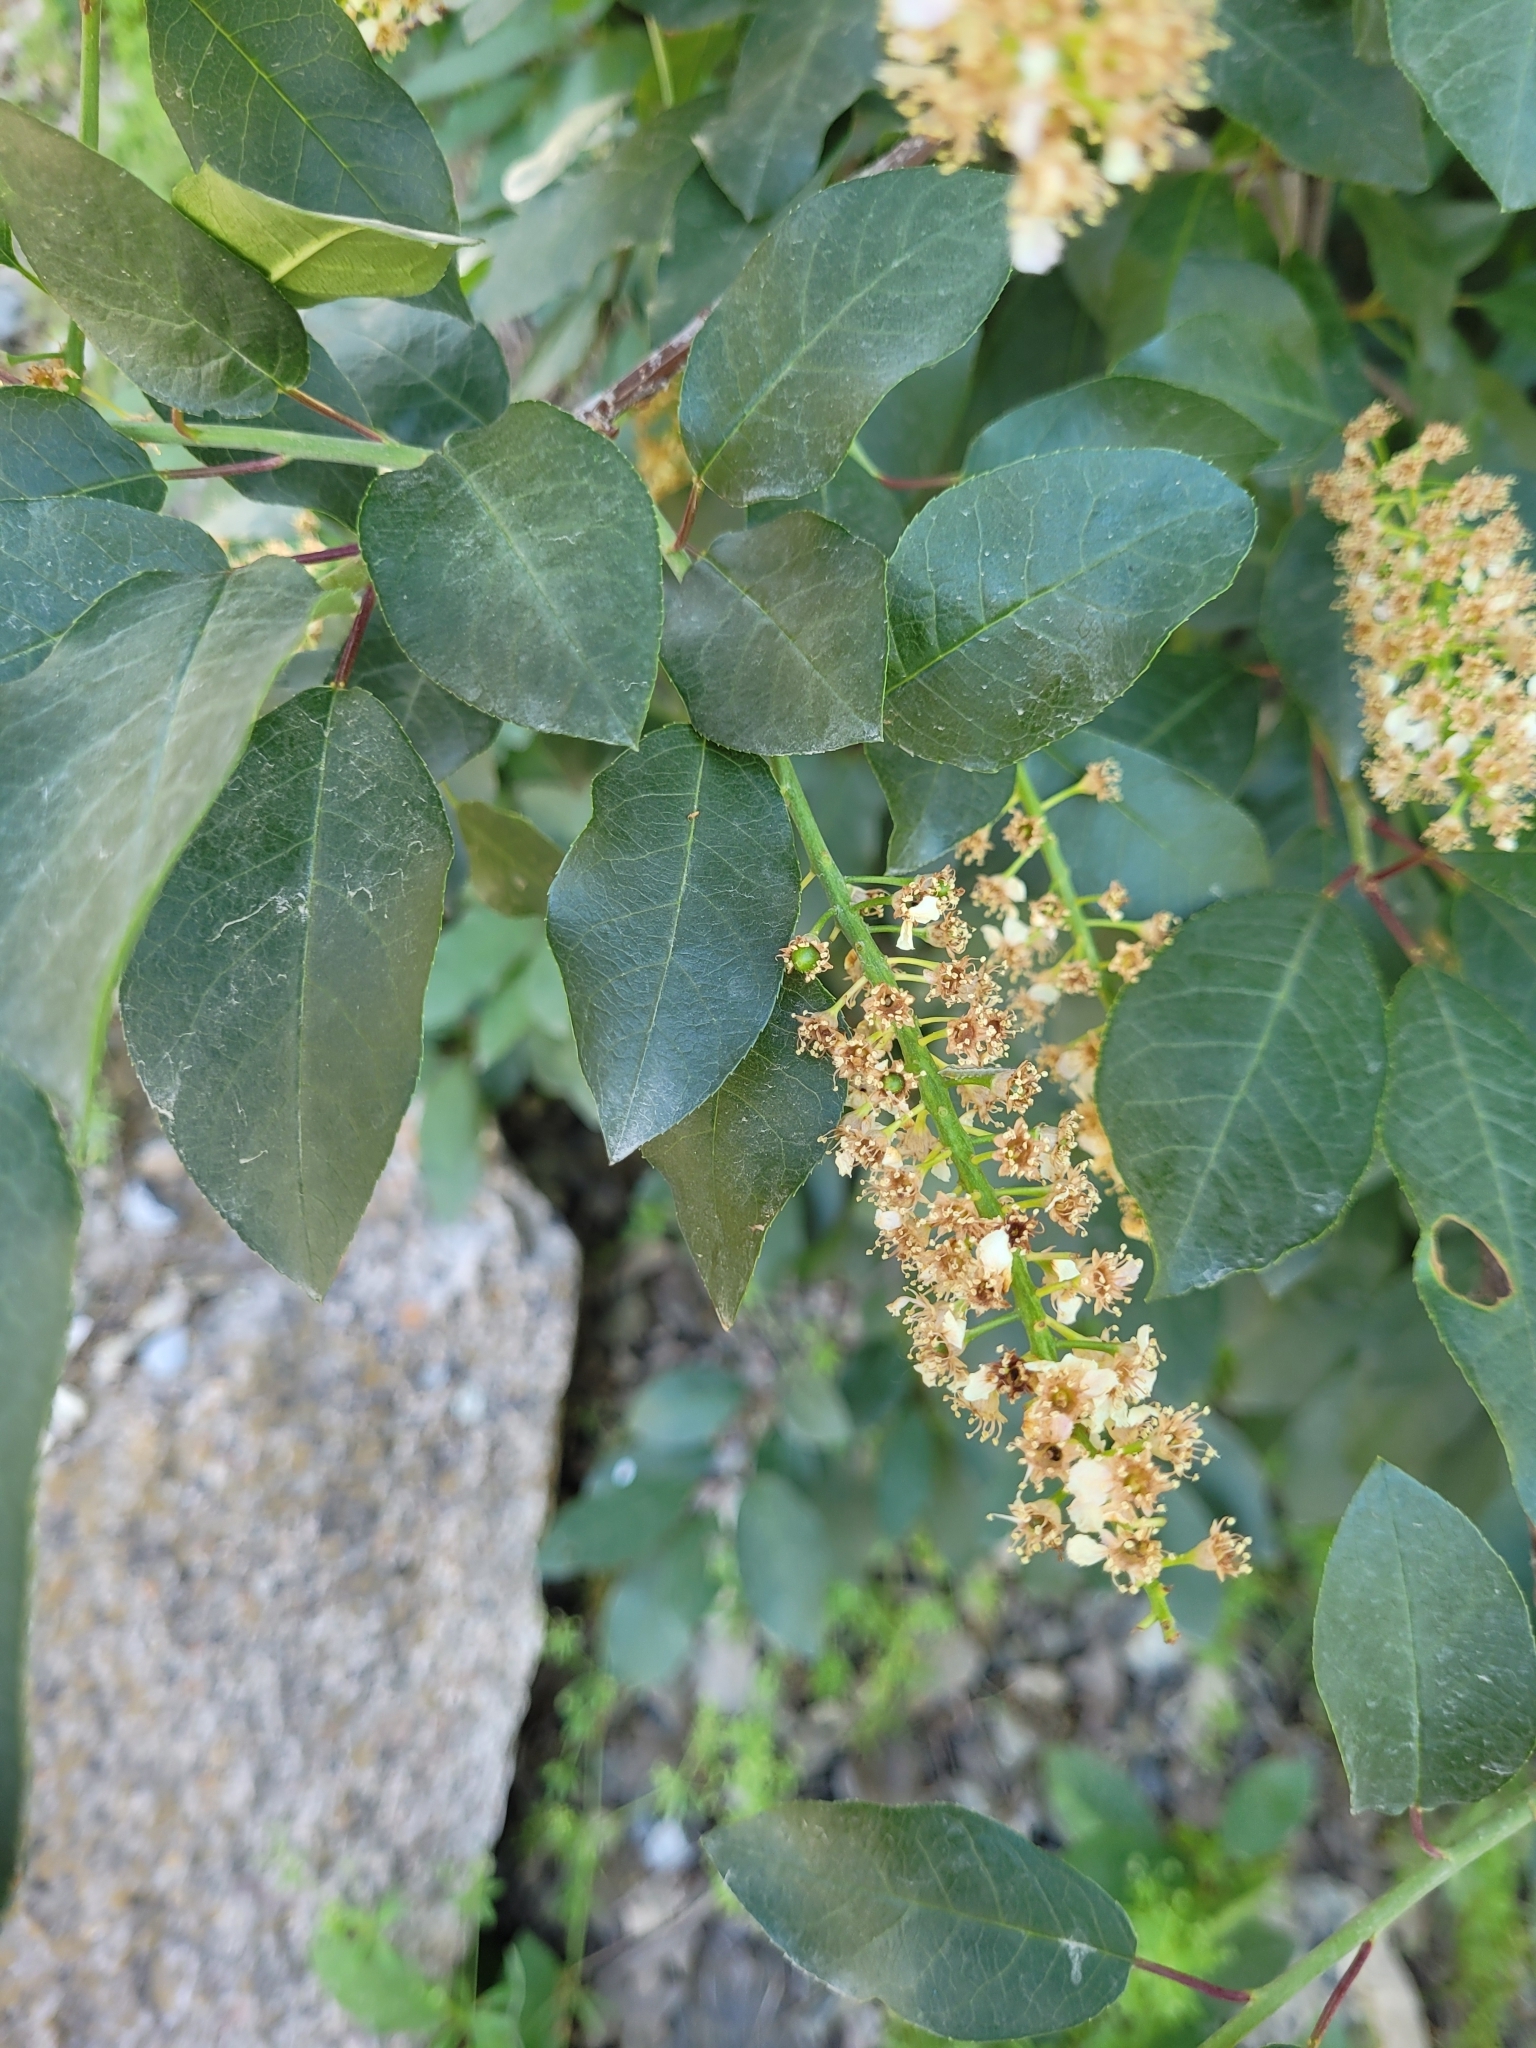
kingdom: Plantae
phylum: Tracheophyta
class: Magnoliopsida
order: Rosales
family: Rosaceae
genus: Prunus
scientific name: Prunus virginiana
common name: Chokecherry
